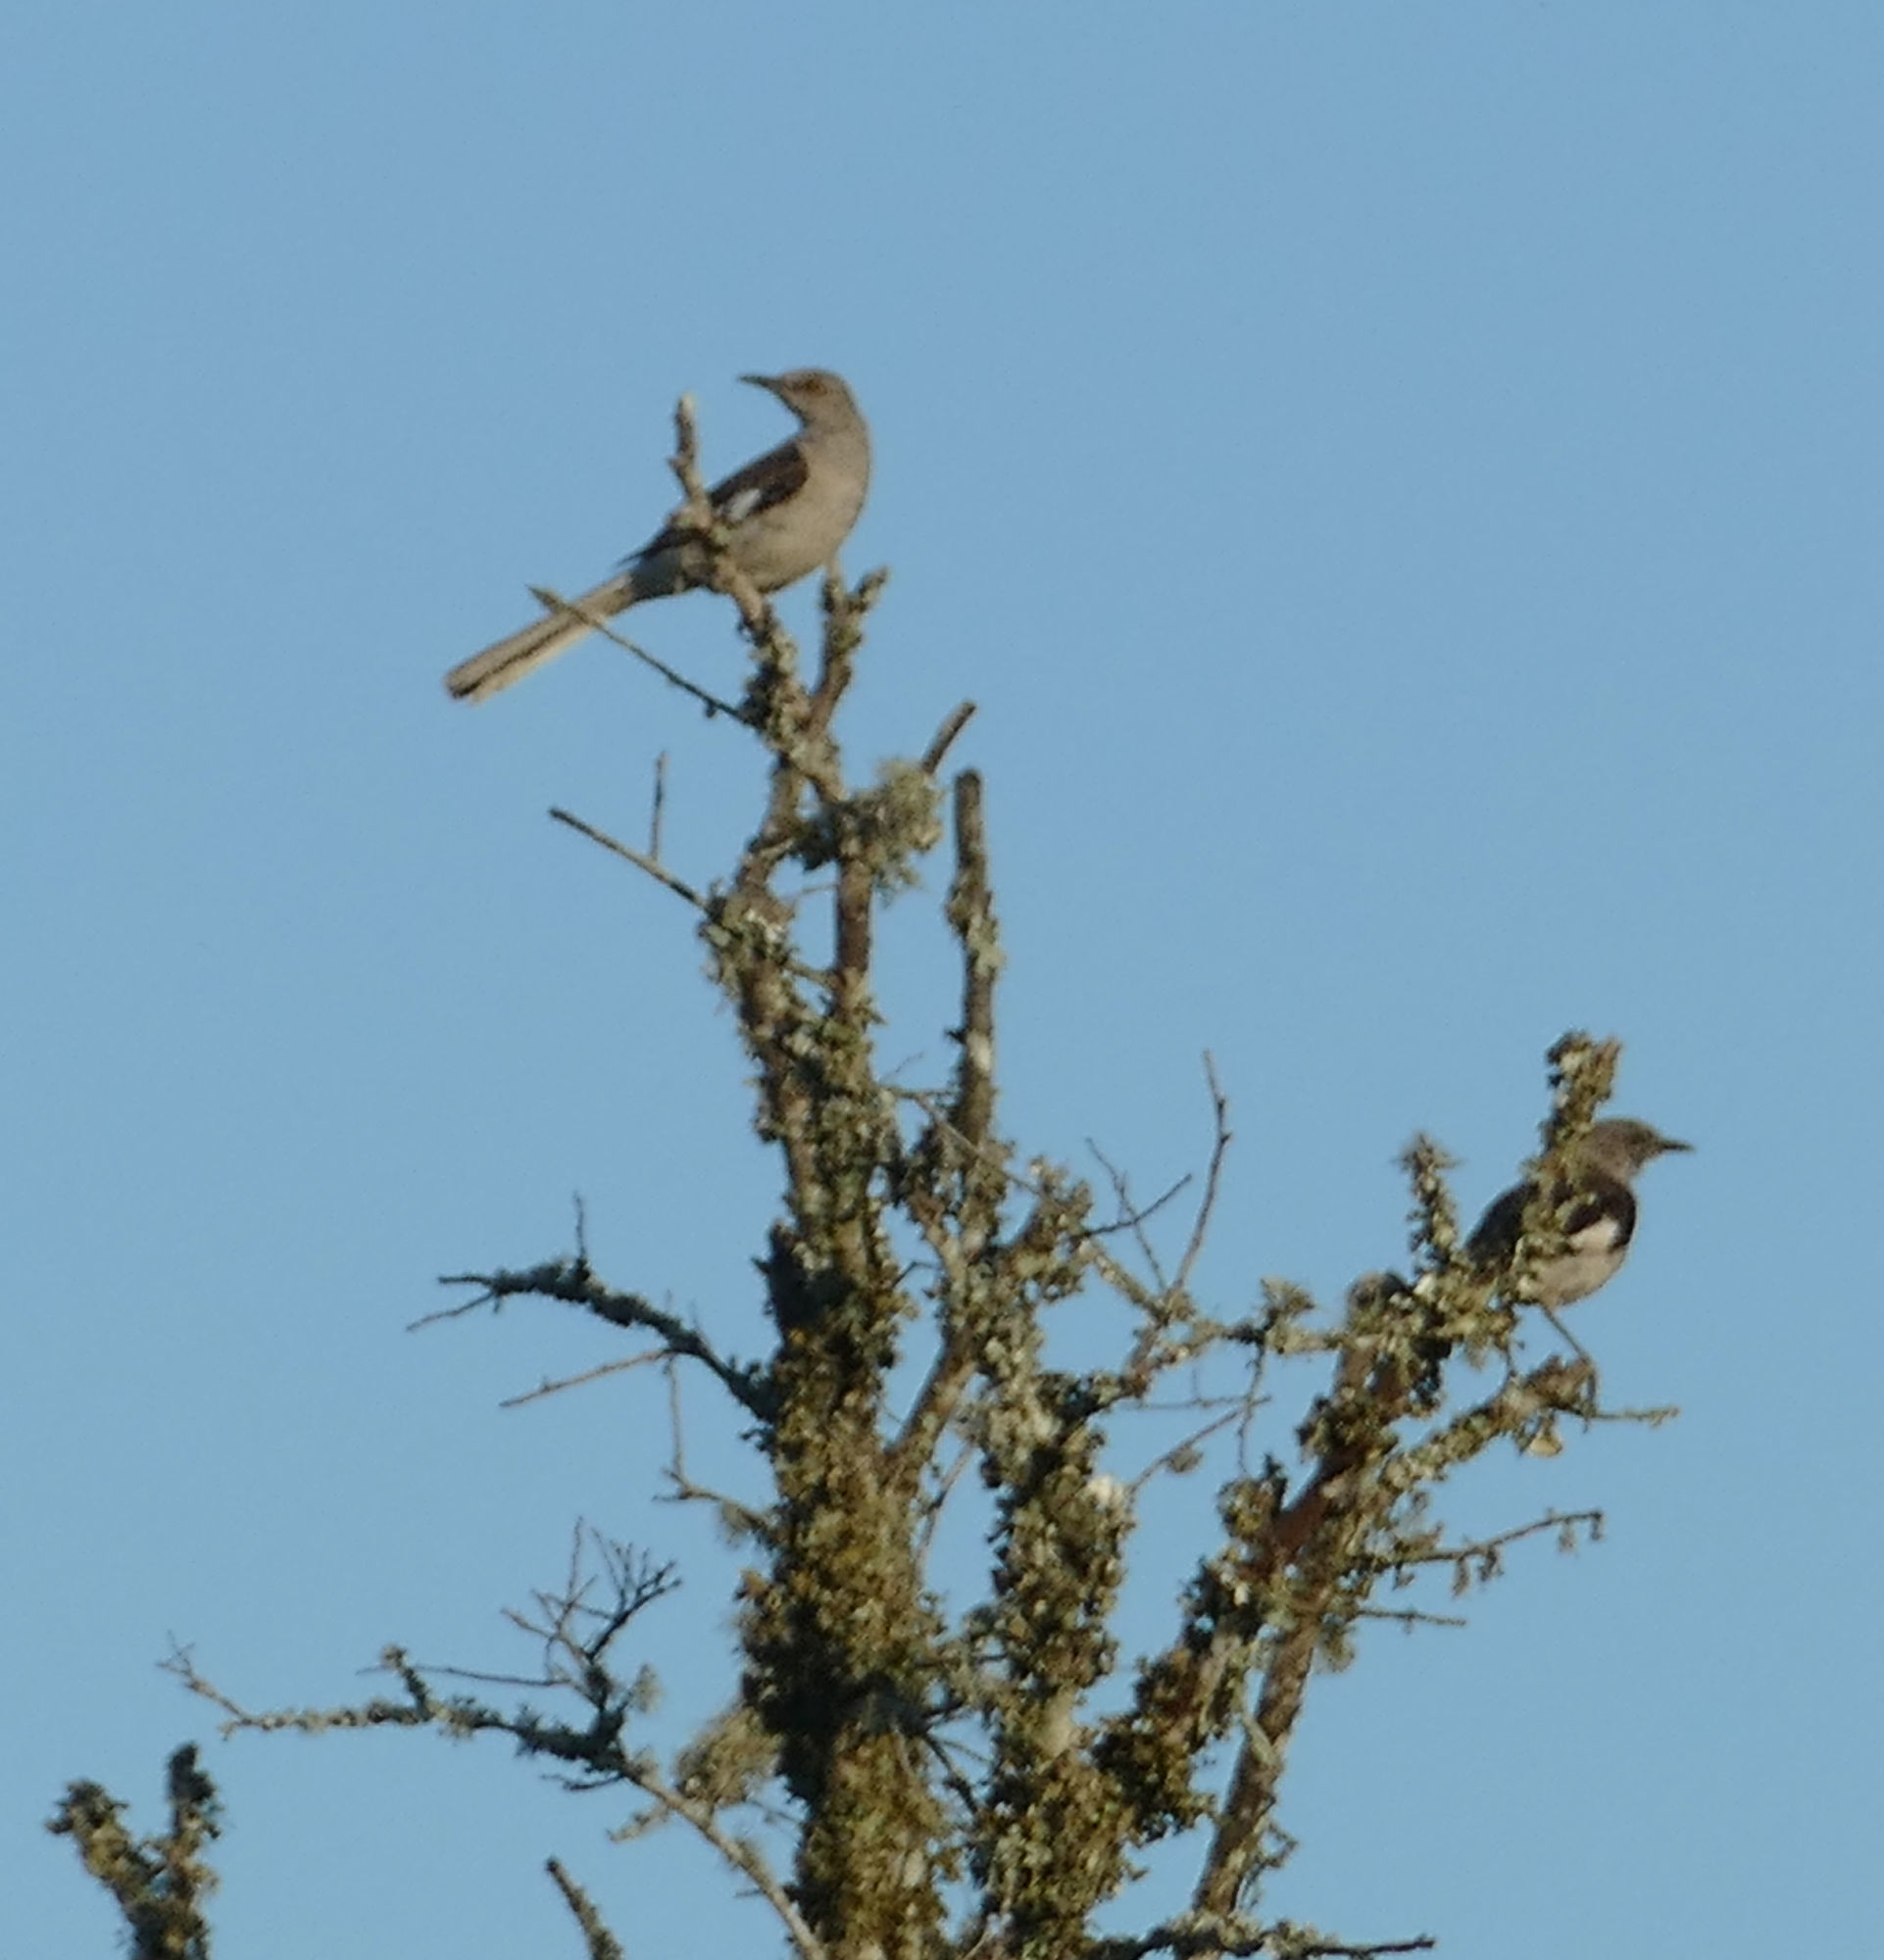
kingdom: Animalia
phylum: Chordata
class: Aves
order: Passeriformes
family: Mimidae
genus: Mimus
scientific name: Mimus polyglottos
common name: Northern mockingbird
